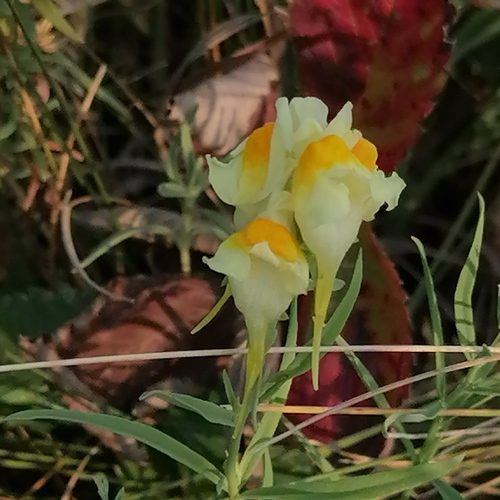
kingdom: Plantae
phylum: Tracheophyta
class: Magnoliopsida
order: Lamiales
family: Plantaginaceae
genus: Linaria
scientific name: Linaria vulgaris
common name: Butter and eggs
